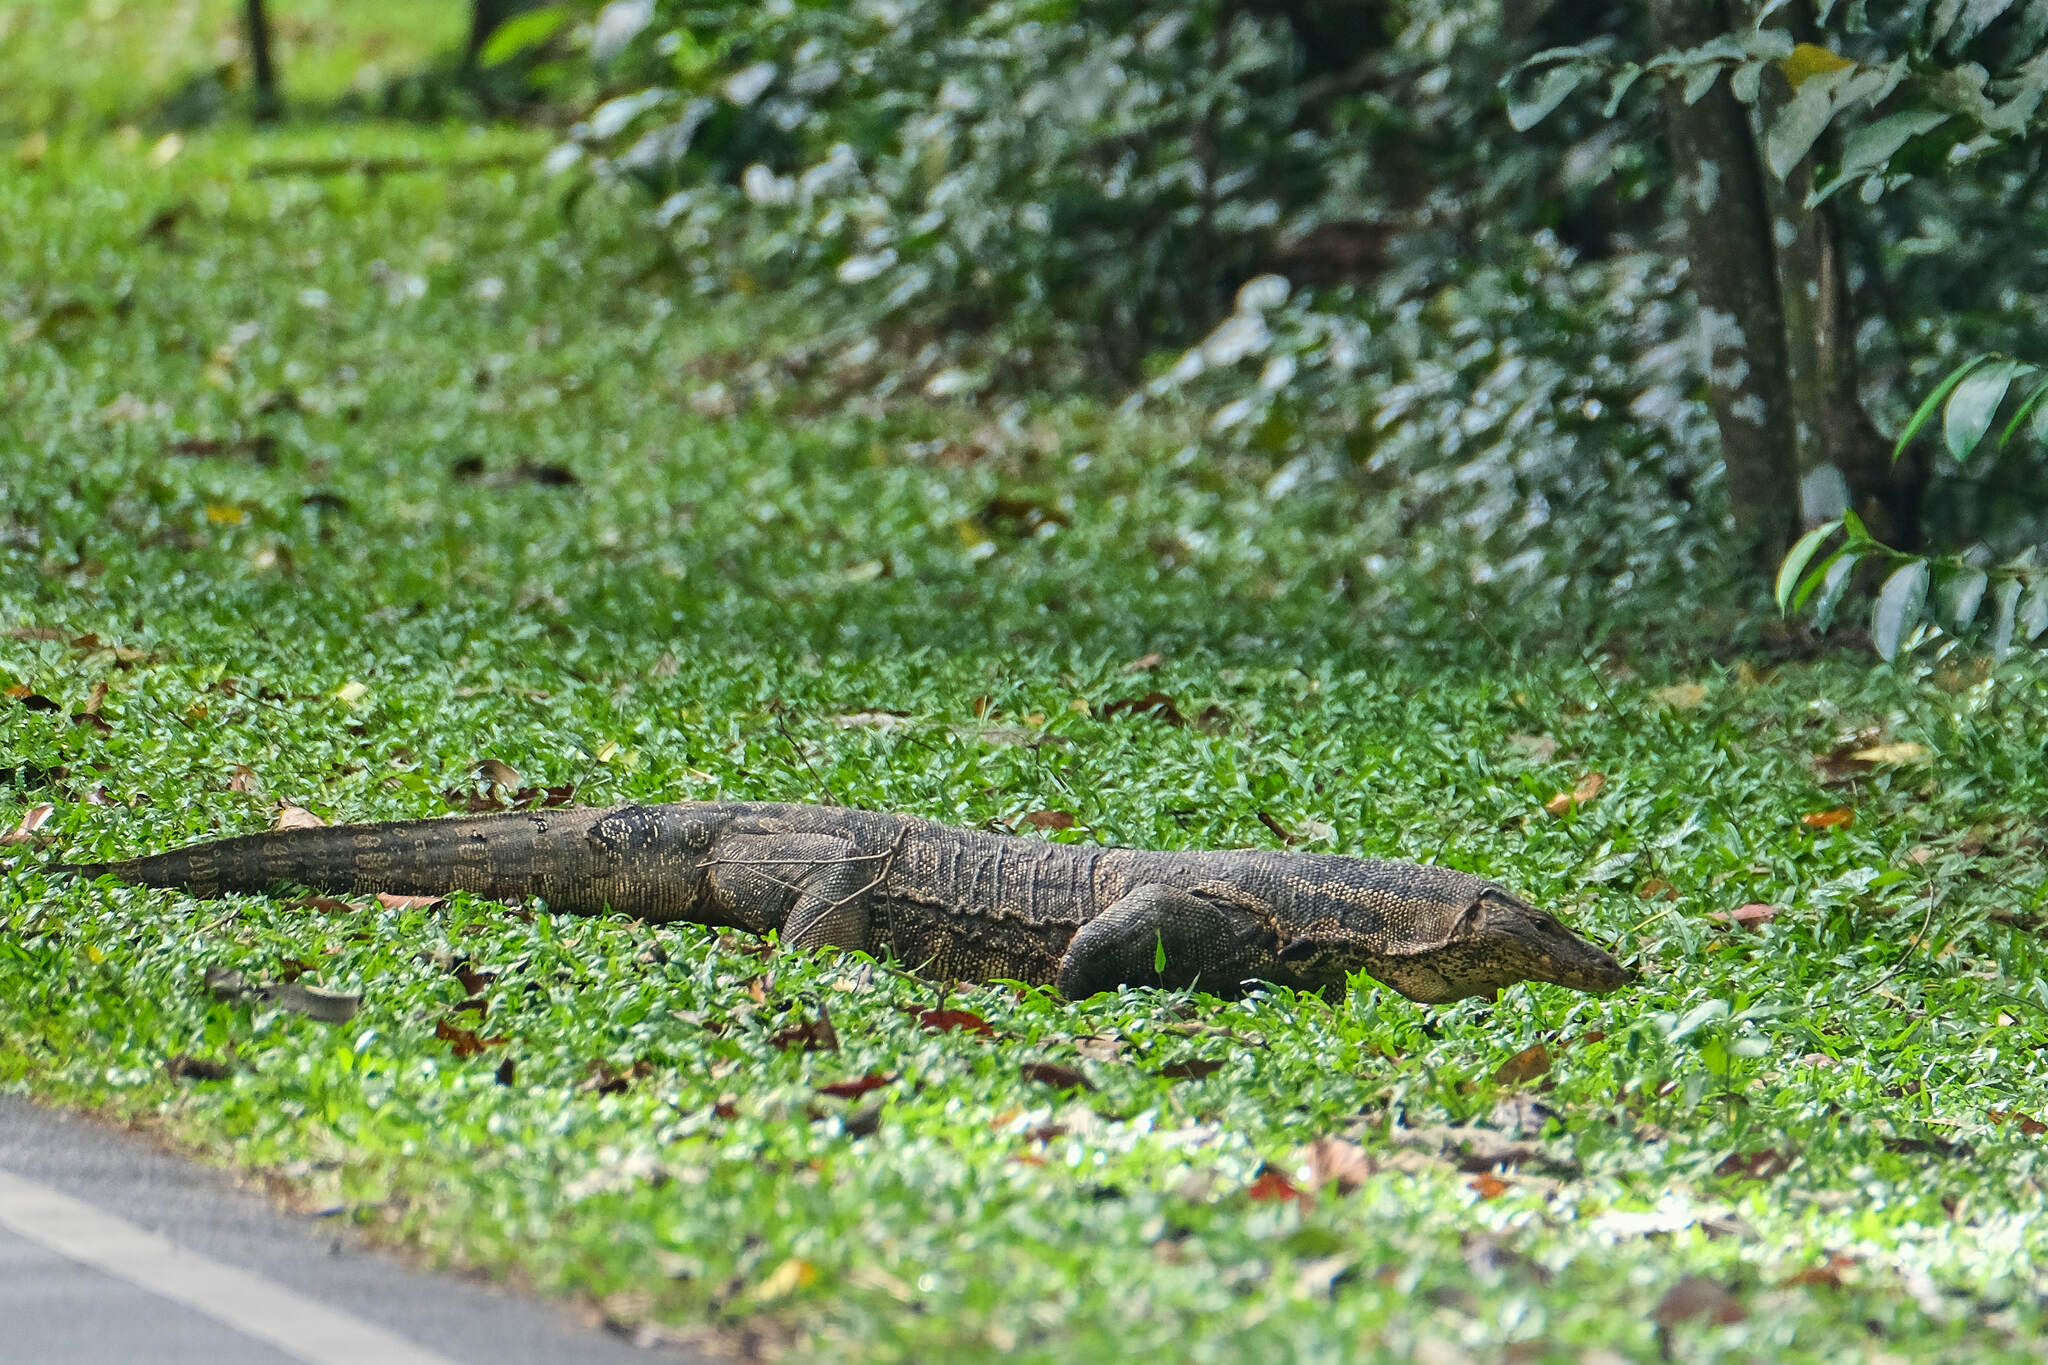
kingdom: Animalia
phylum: Chordata
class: Squamata
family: Varanidae
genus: Varanus
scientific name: Varanus salvator
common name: Common water monitor
